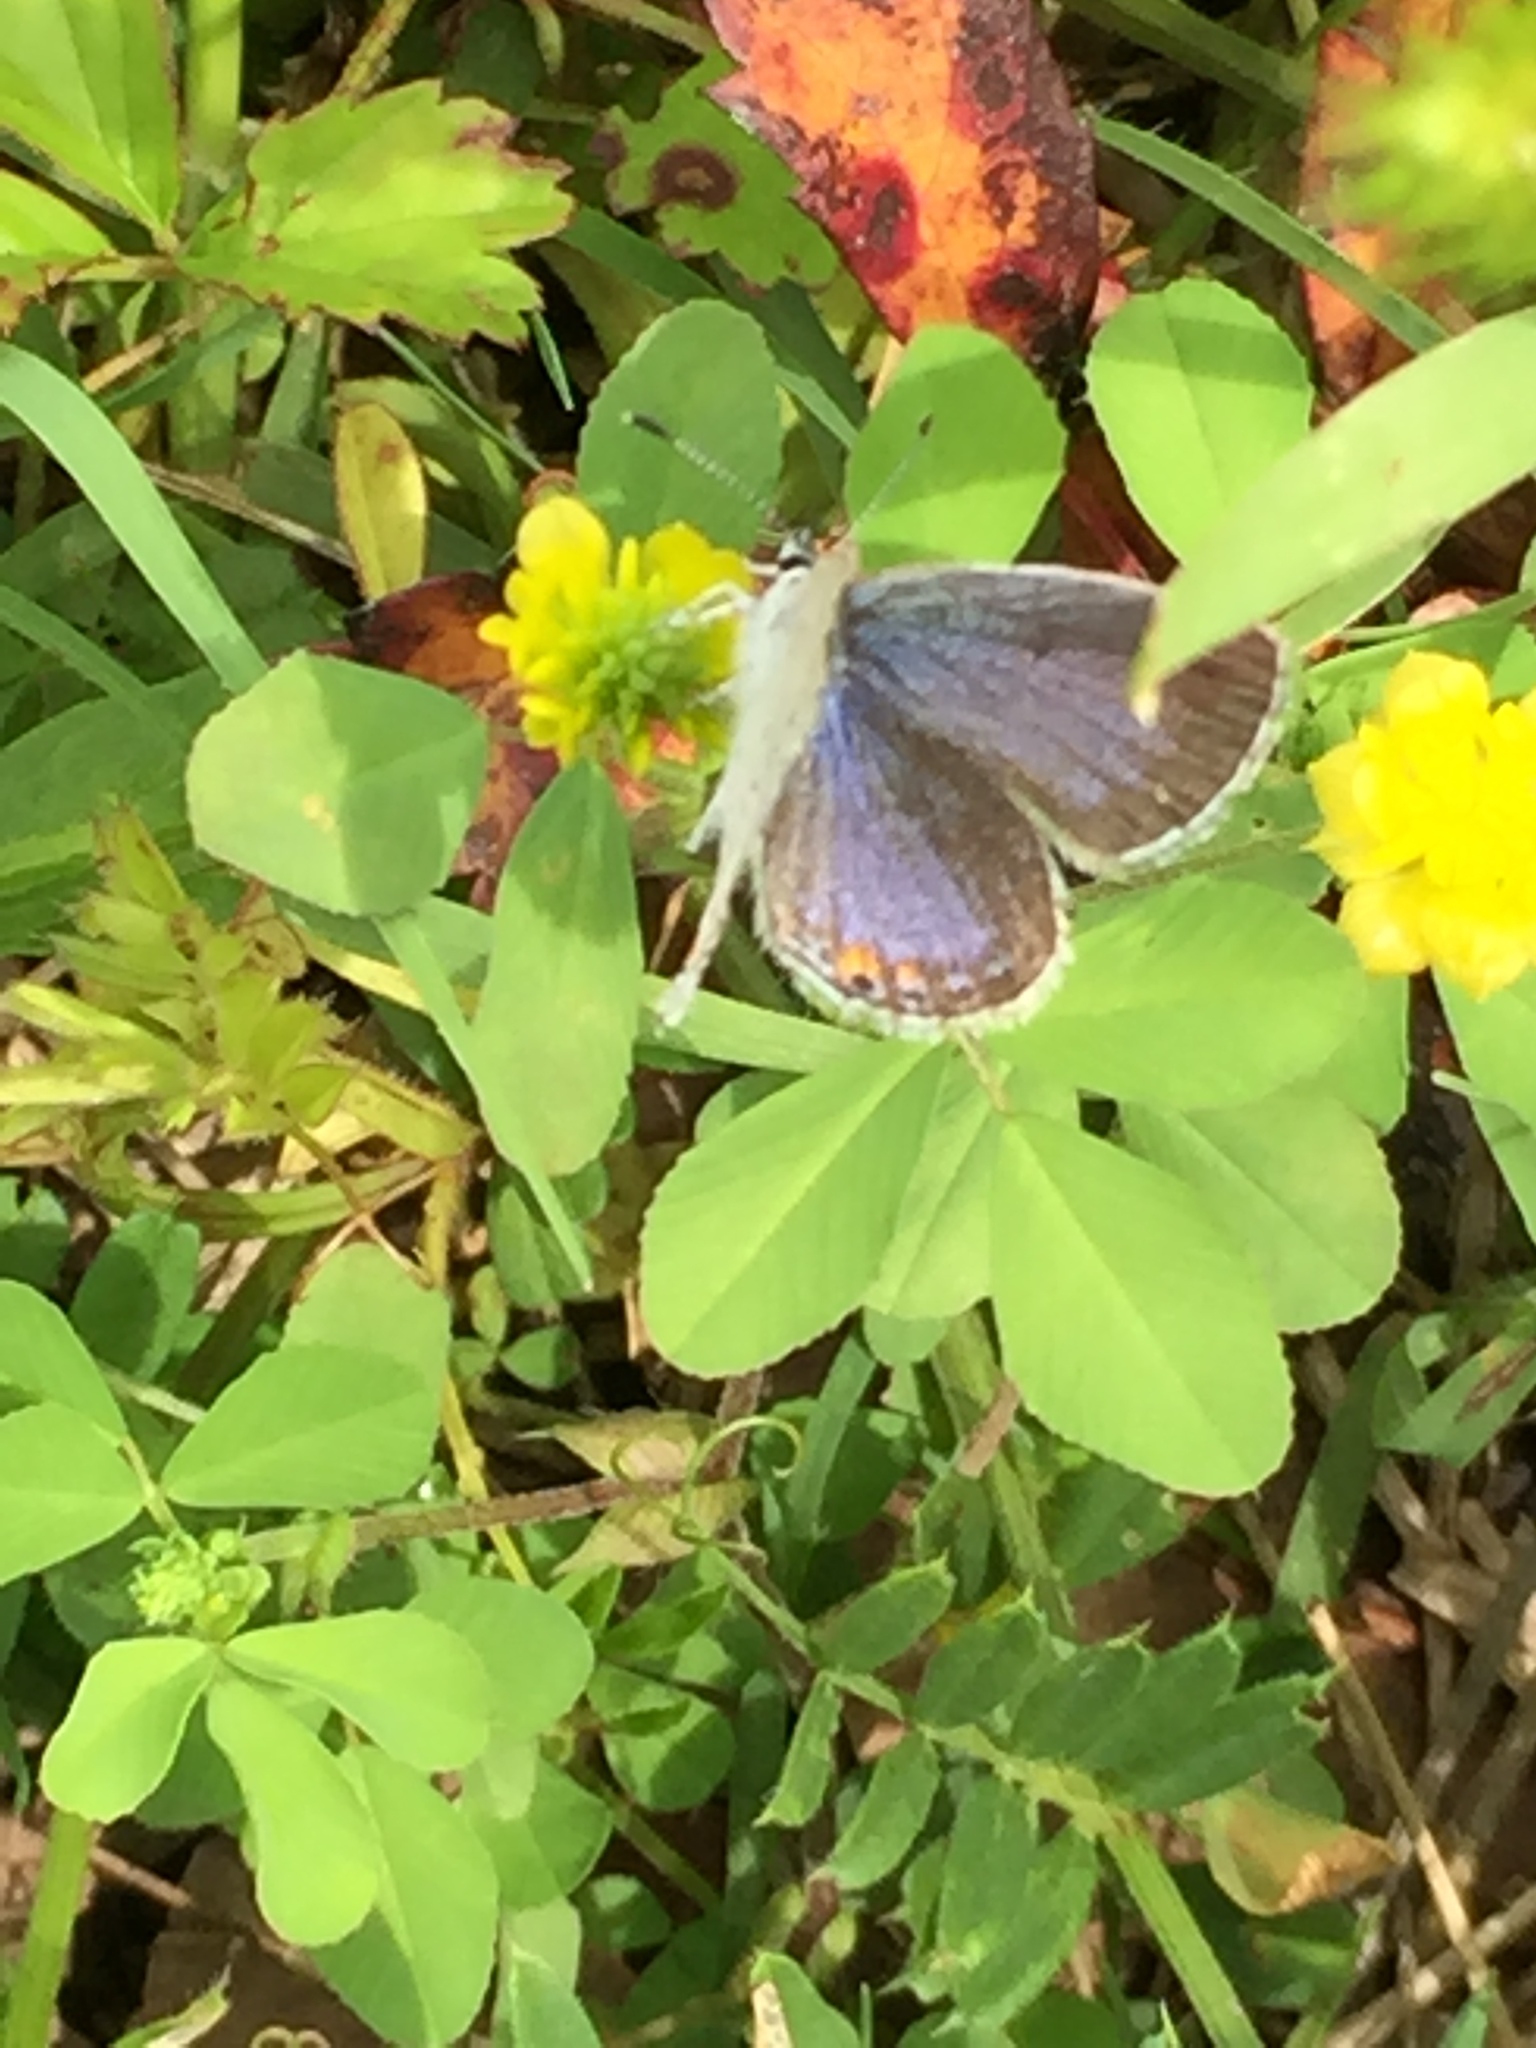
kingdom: Animalia
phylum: Arthropoda
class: Insecta
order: Lepidoptera
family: Lycaenidae
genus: Elkalyce
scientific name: Elkalyce comyntas
